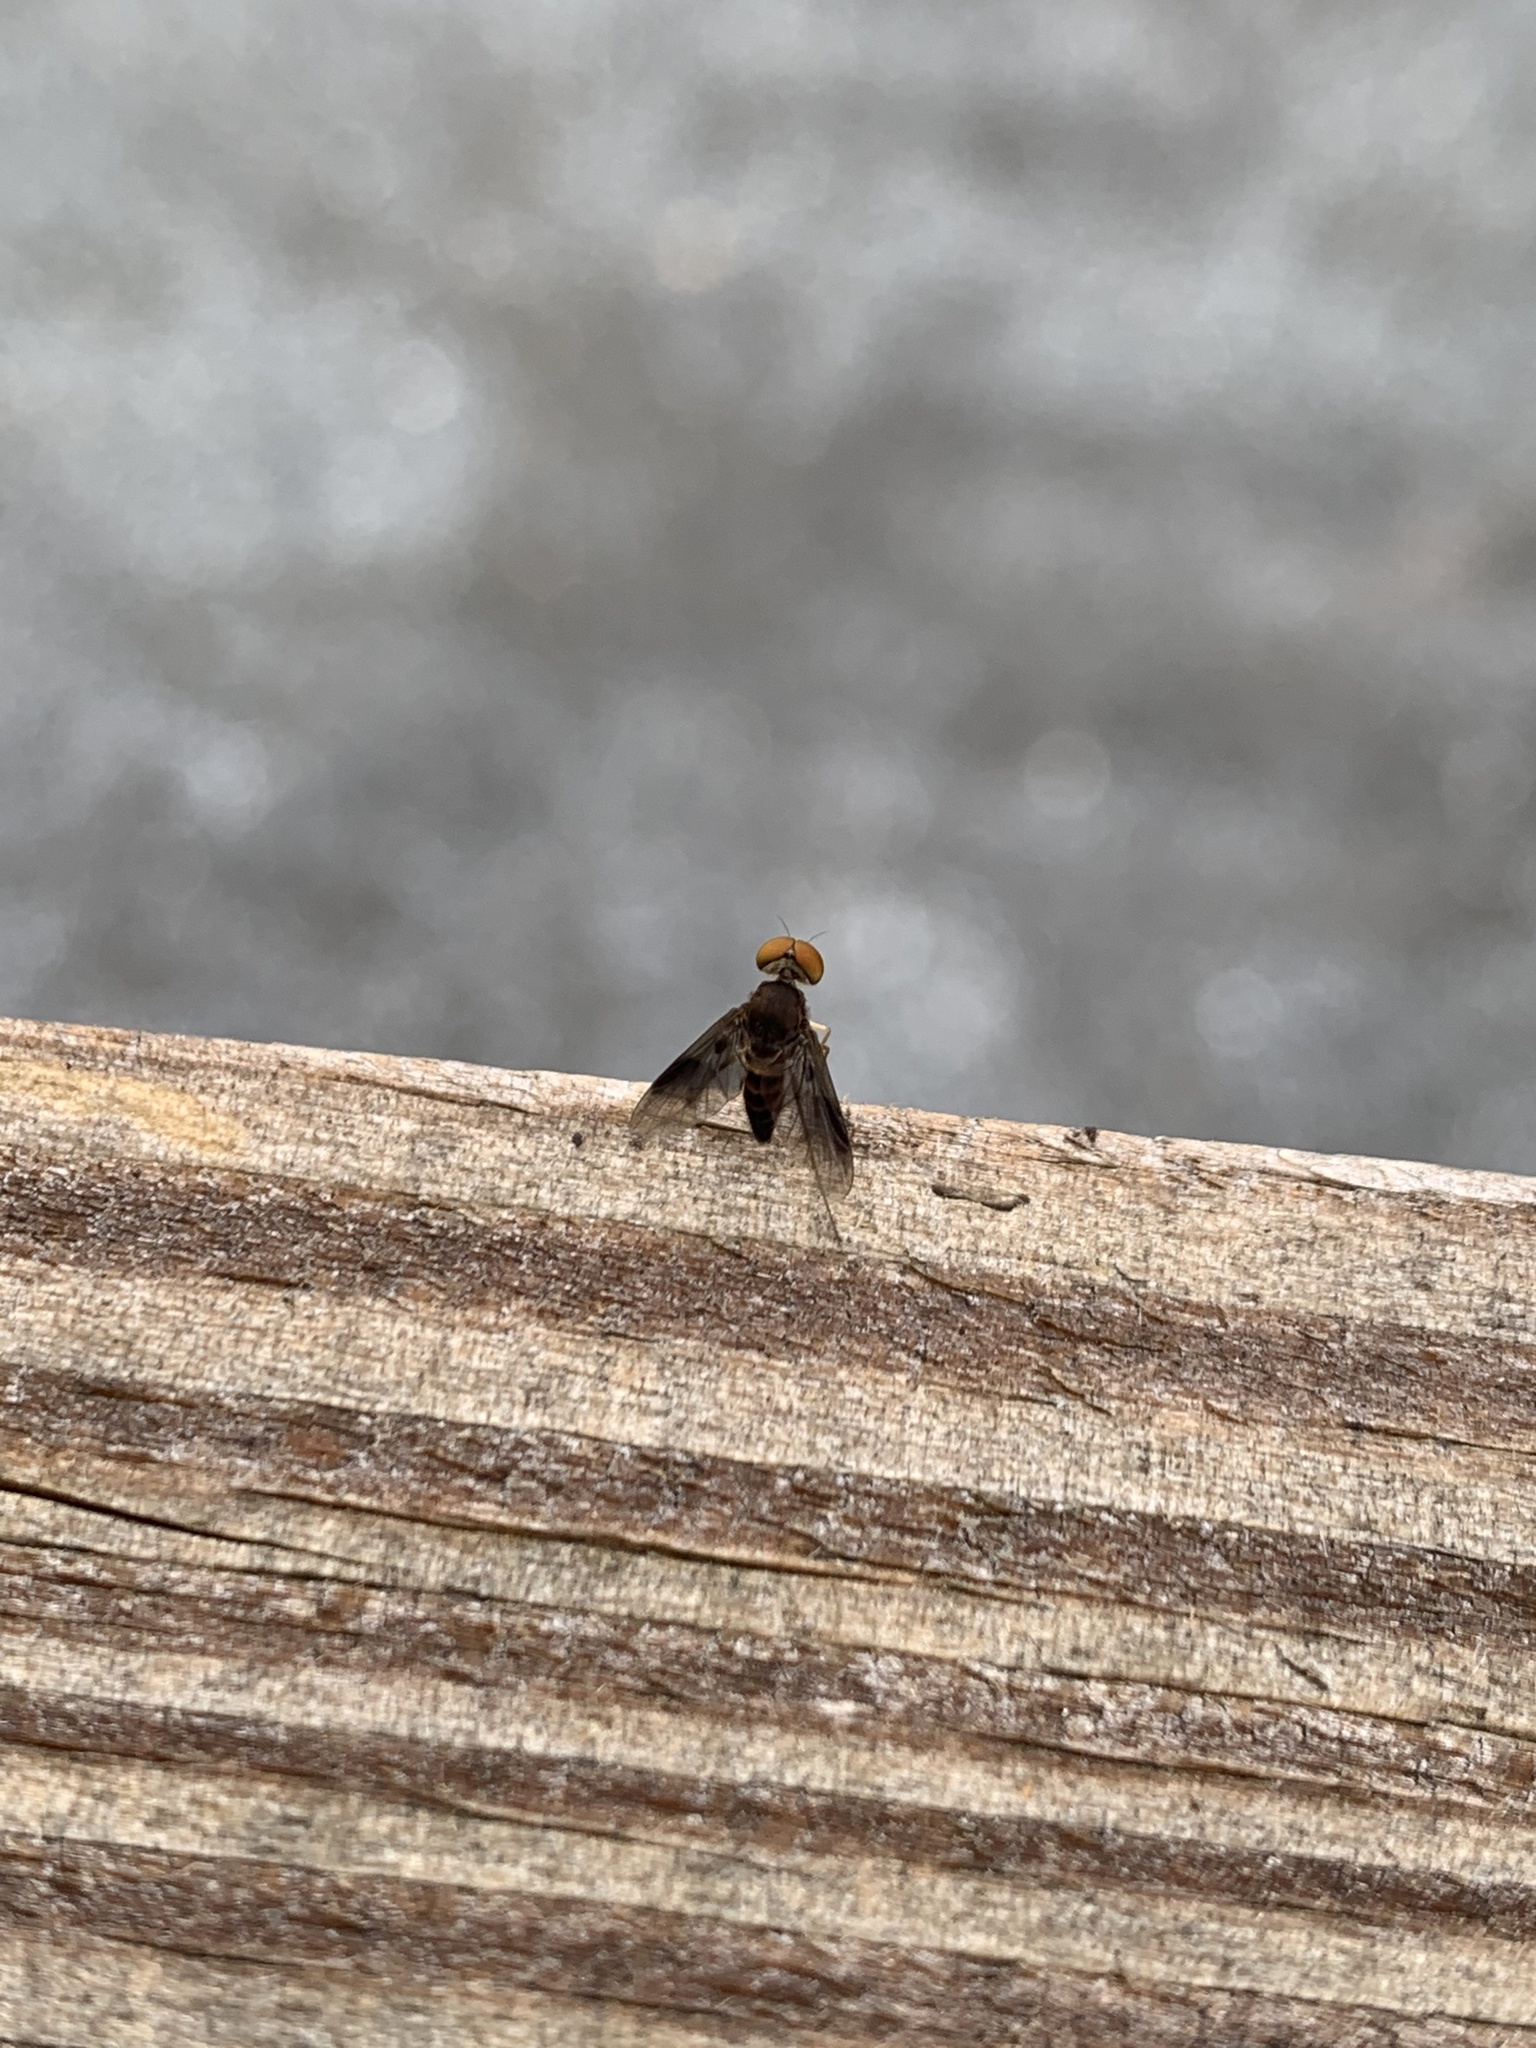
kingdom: Animalia
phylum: Arthropoda
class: Insecta
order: Diptera
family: Rhagionidae
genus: Chrysopilus
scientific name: Chrysopilus quadratus
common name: Quadrate snipe fly
